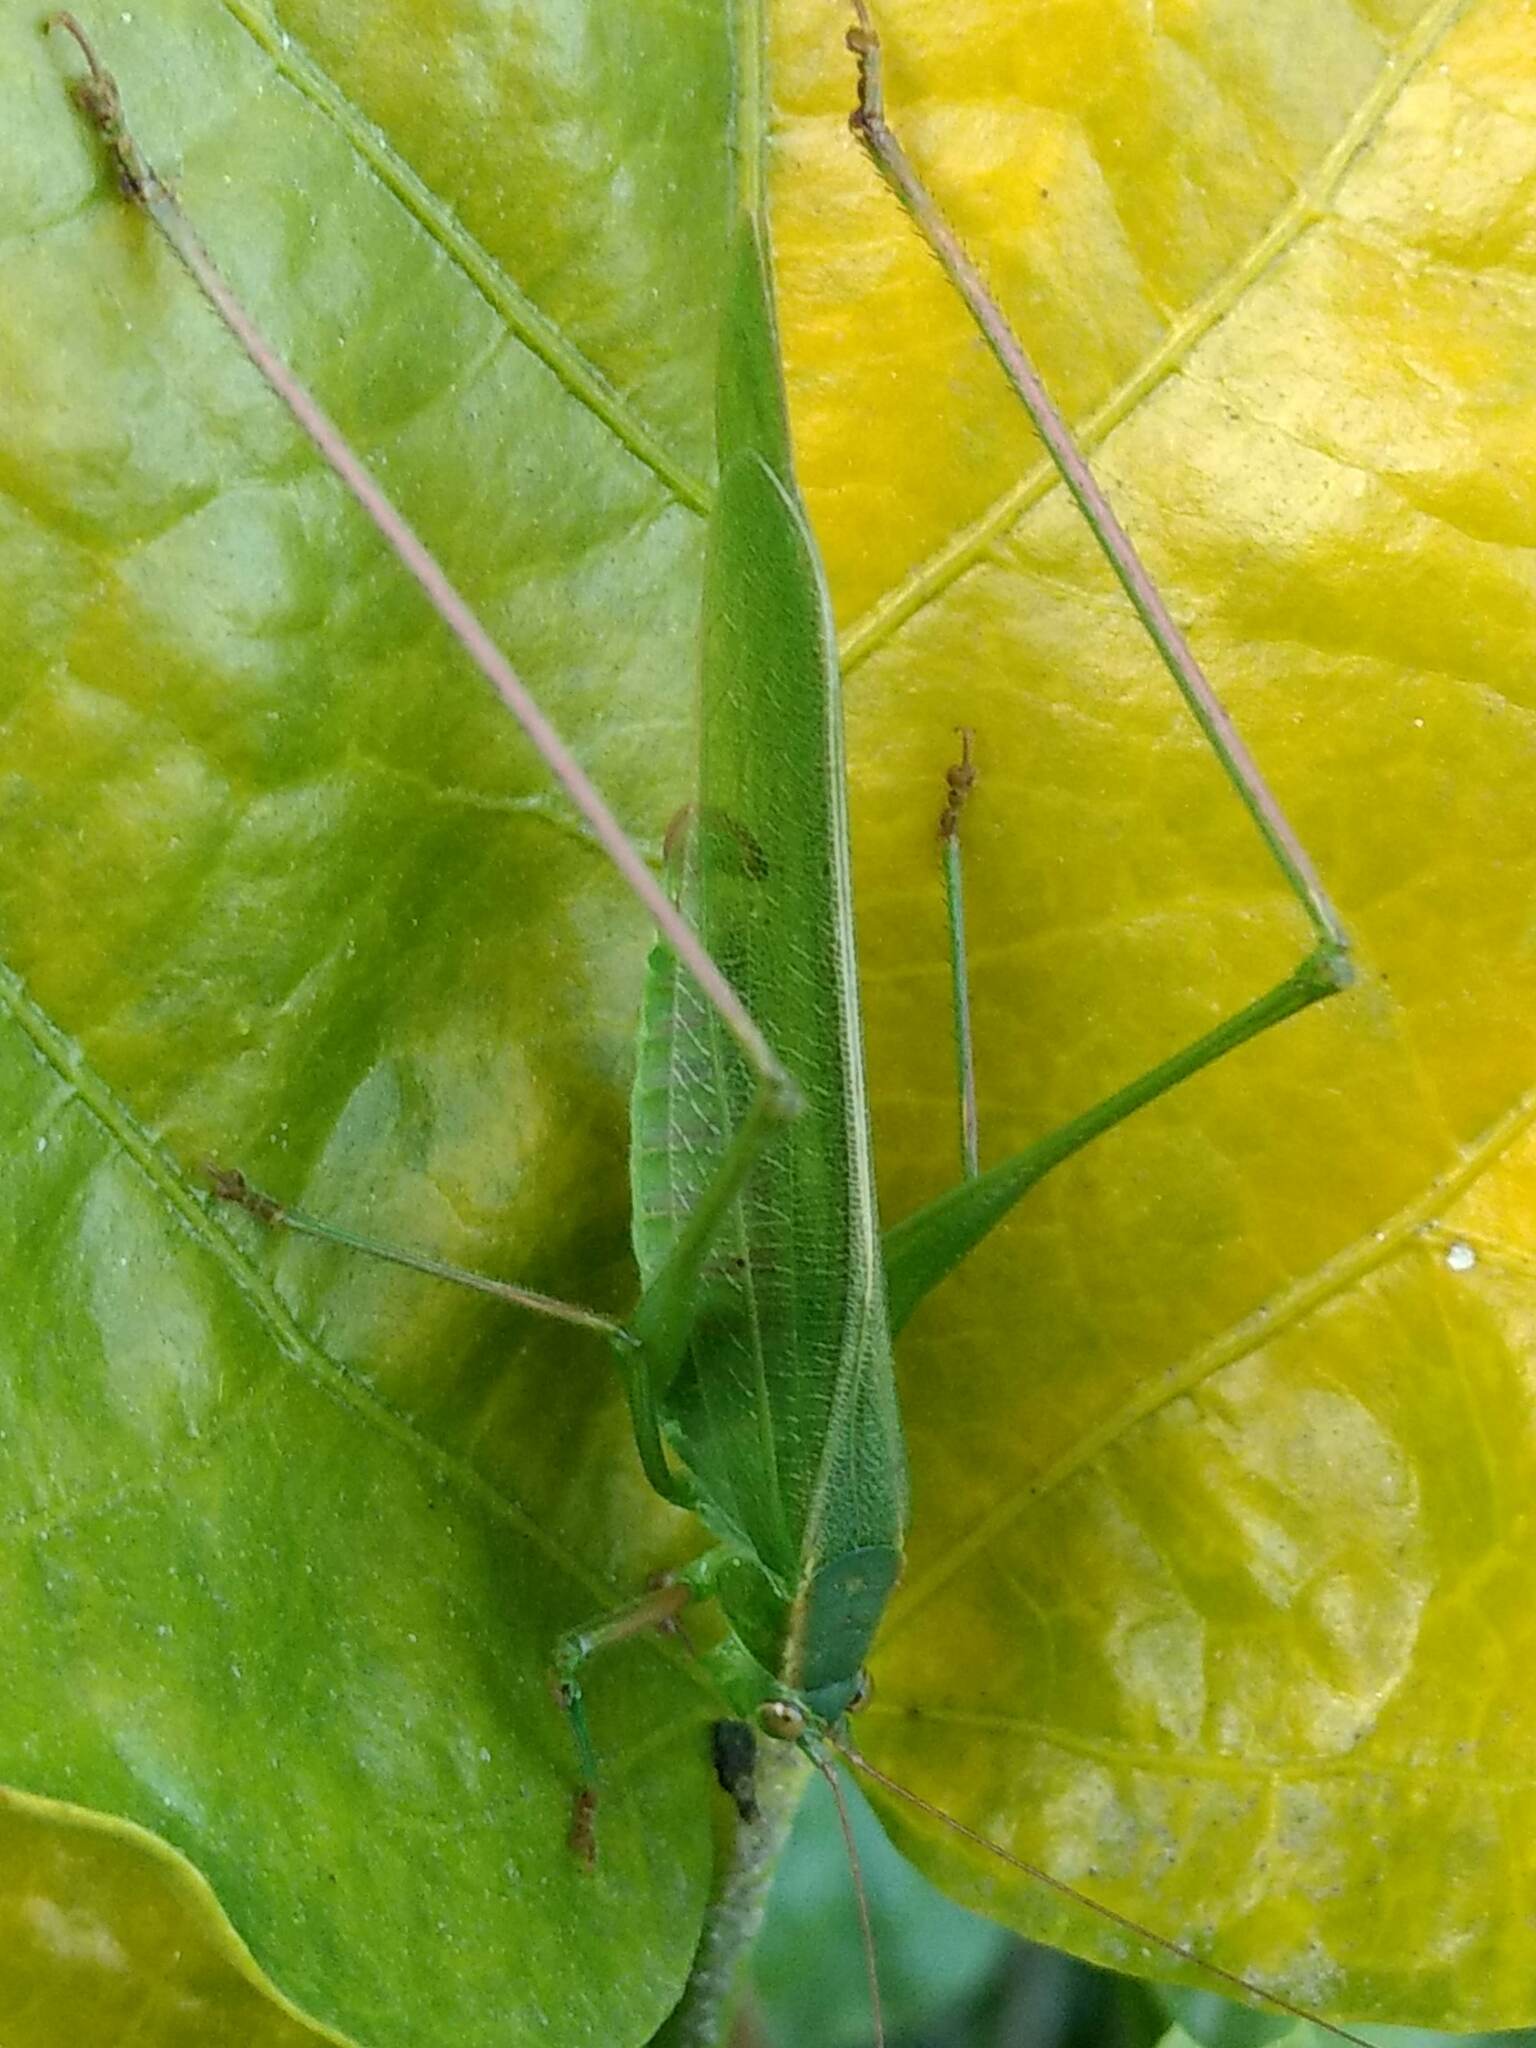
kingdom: Animalia
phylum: Arthropoda
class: Insecta
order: Orthoptera
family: Tettigoniidae
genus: Scudderia
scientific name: Scudderia
